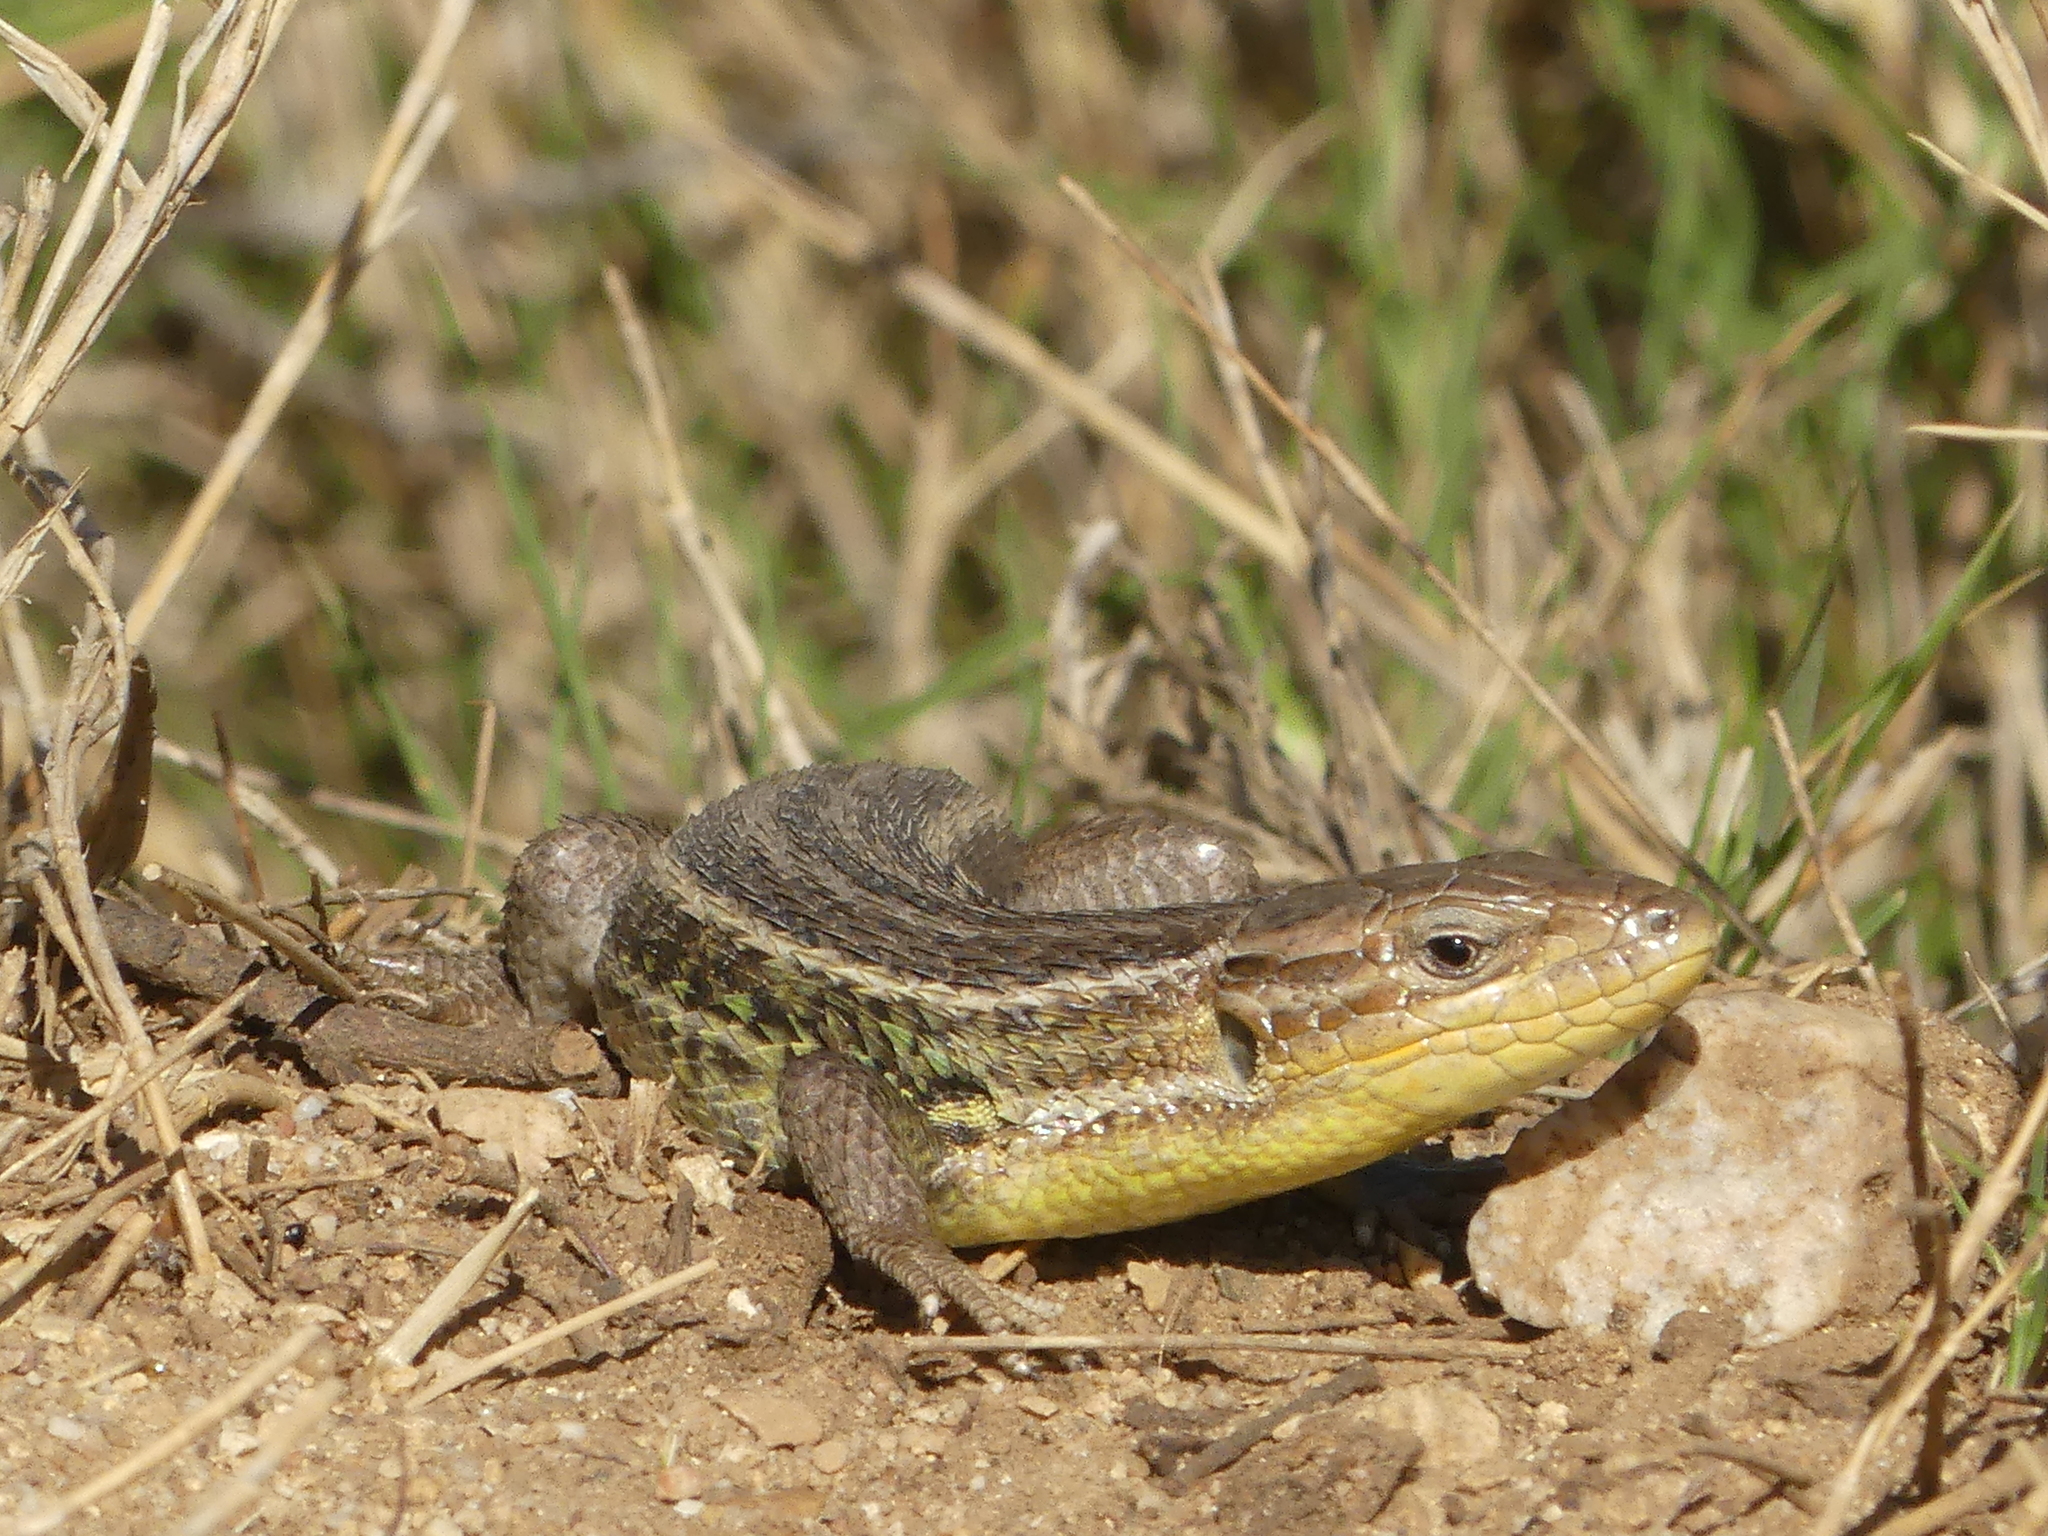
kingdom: Animalia
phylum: Chordata
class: Squamata
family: Lacertidae
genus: Psammodromus
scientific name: Psammodromus algirus
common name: Algerian psammodromus
